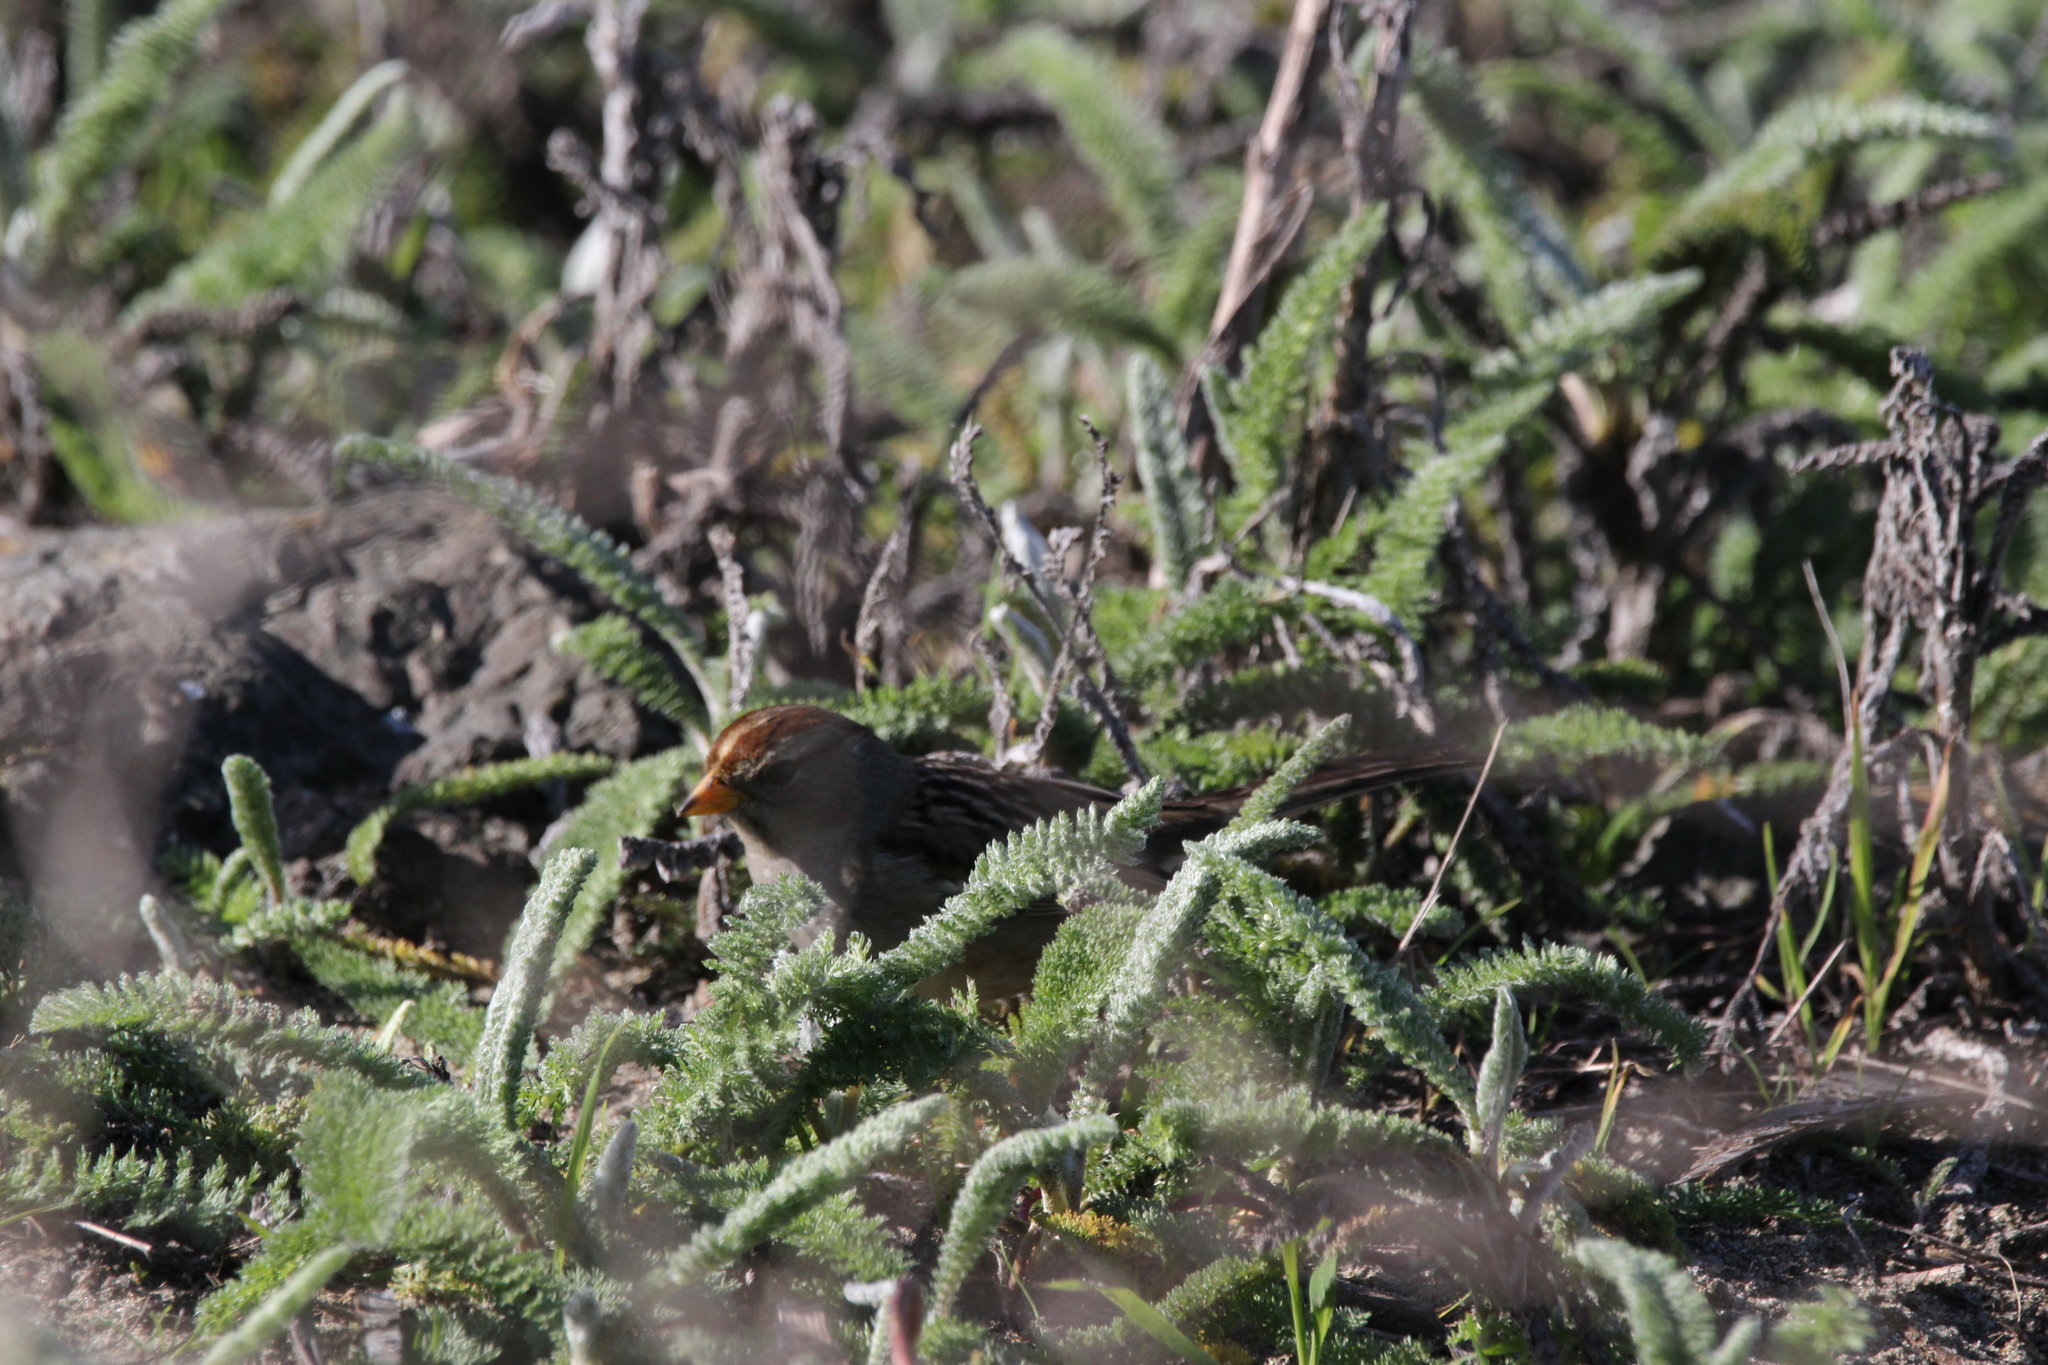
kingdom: Animalia
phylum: Chordata
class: Aves
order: Passeriformes
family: Passerellidae
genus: Zonotrichia
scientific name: Zonotrichia leucophrys
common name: White-crowned sparrow
